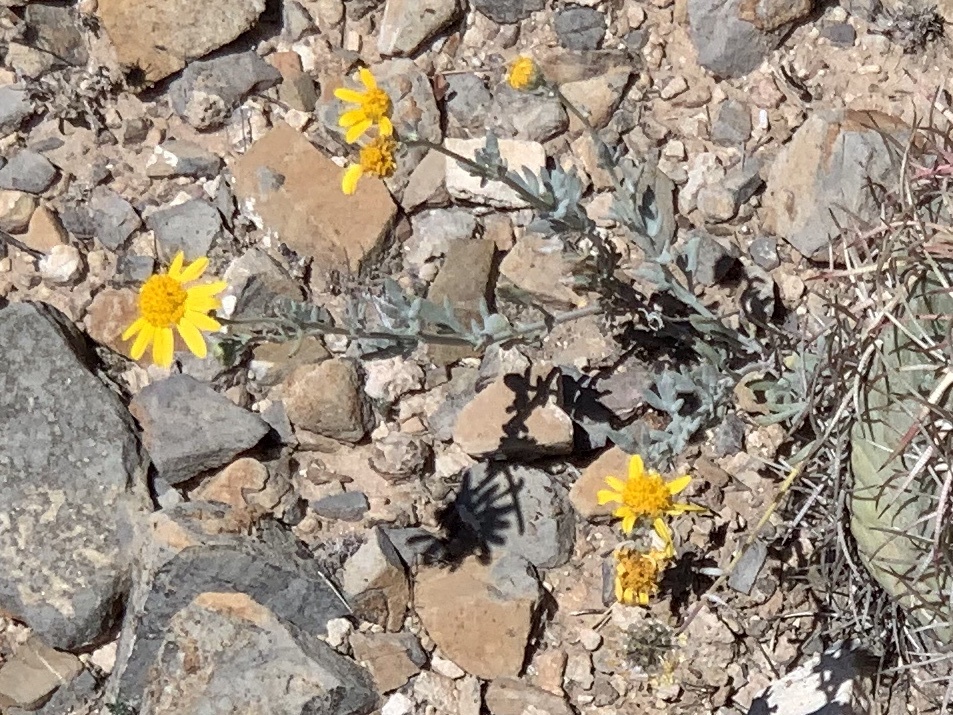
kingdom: Plantae
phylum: Tracheophyta
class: Magnoliopsida
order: Asterales
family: Asteraceae
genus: Picradeniopsis
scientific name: Picradeniopsis absinthifolia
